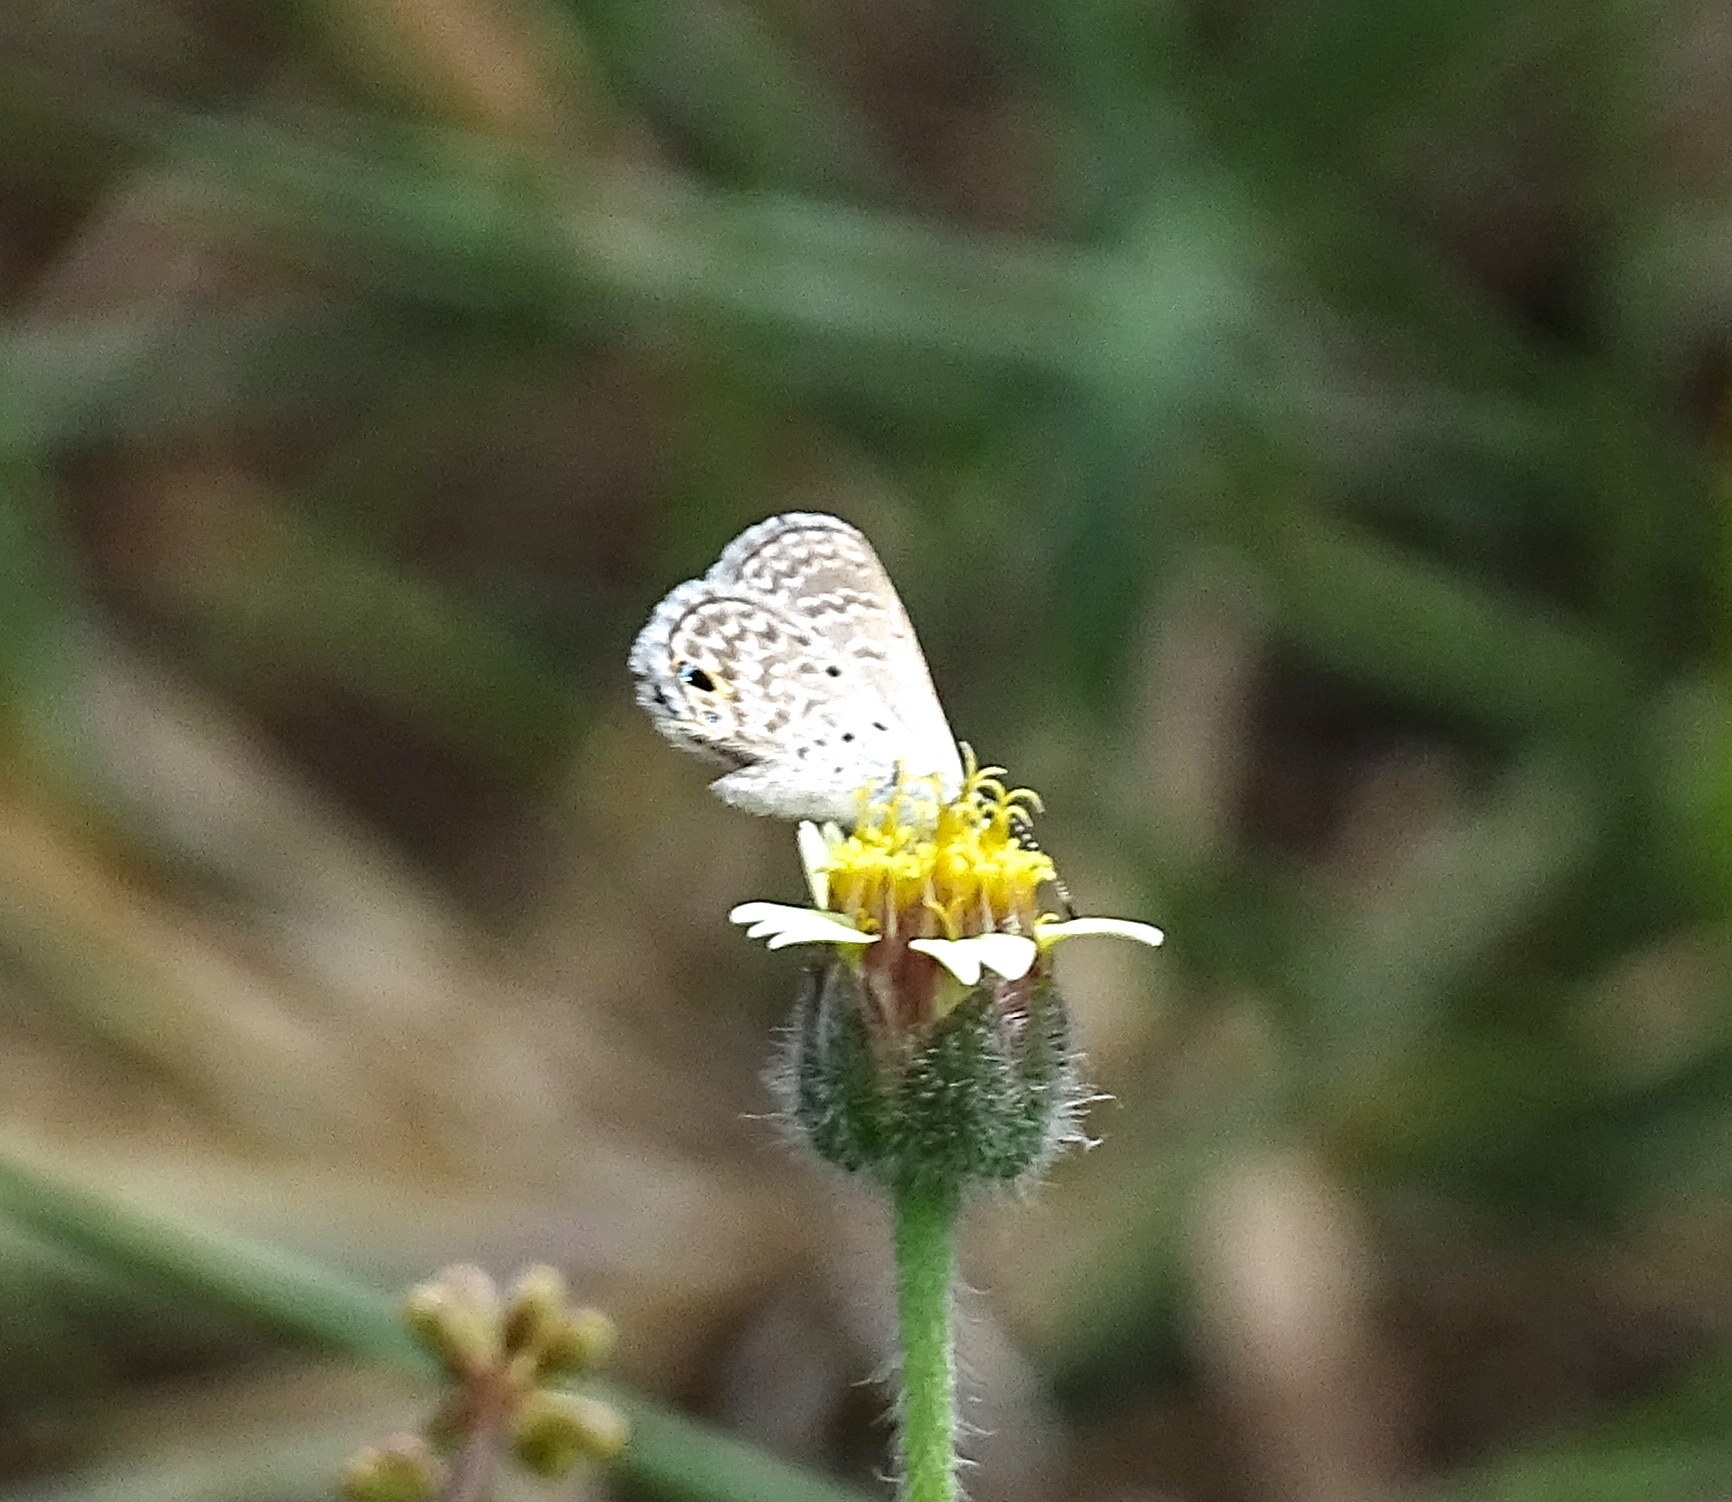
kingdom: Animalia
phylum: Arthropoda
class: Insecta
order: Lepidoptera
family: Lycaenidae
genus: Hemiargus
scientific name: Hemiargus hanno
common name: Common blue
